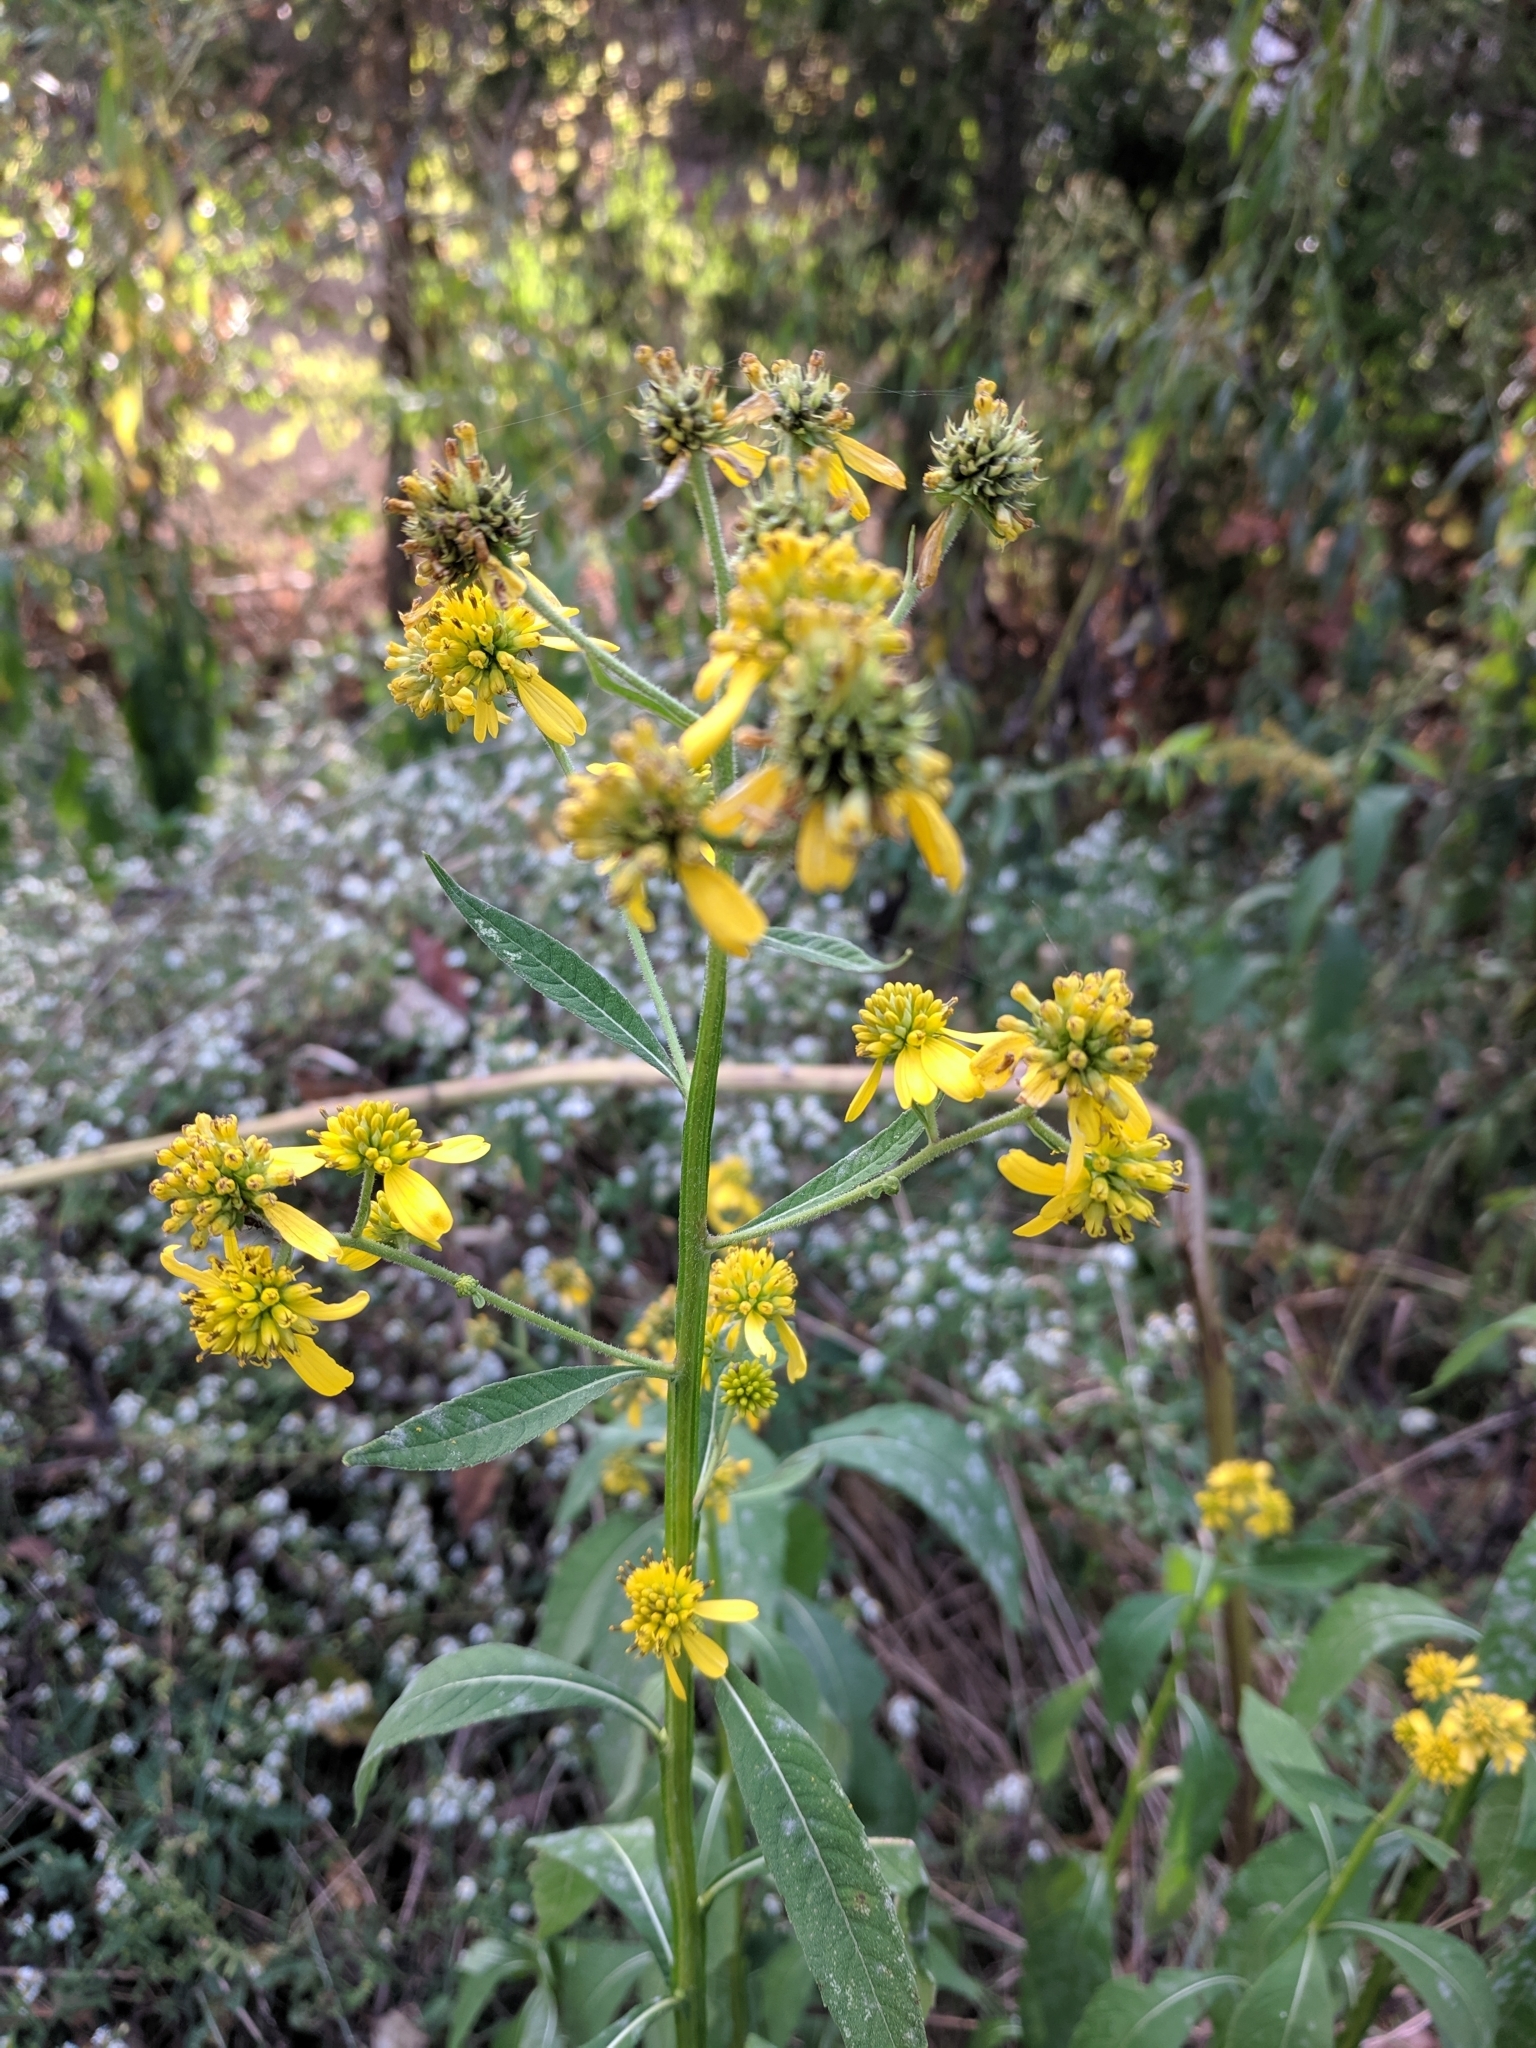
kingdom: Plantae
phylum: Tracheophyta
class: Magnoliopsida
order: Asterales
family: Asteraceae
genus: Verbesina
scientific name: Verbesina alternifolia
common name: Wingstem
